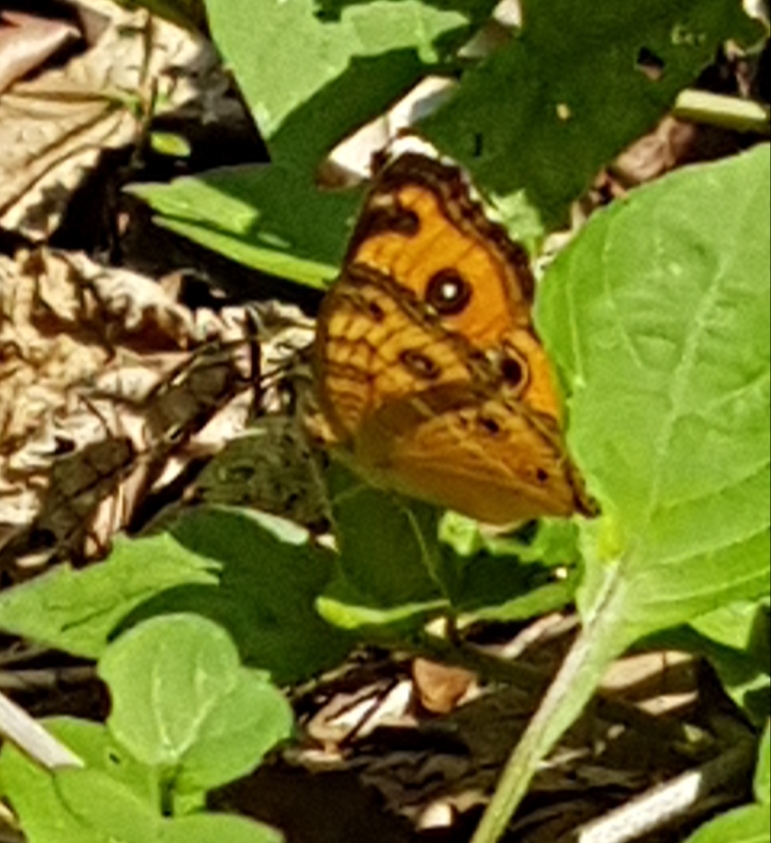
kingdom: Animalia
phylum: Arthropoda
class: Insecta
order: Lepidoptera
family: Nymphalidae
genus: Junonia
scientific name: Junonia almana
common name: Peacock pansy
